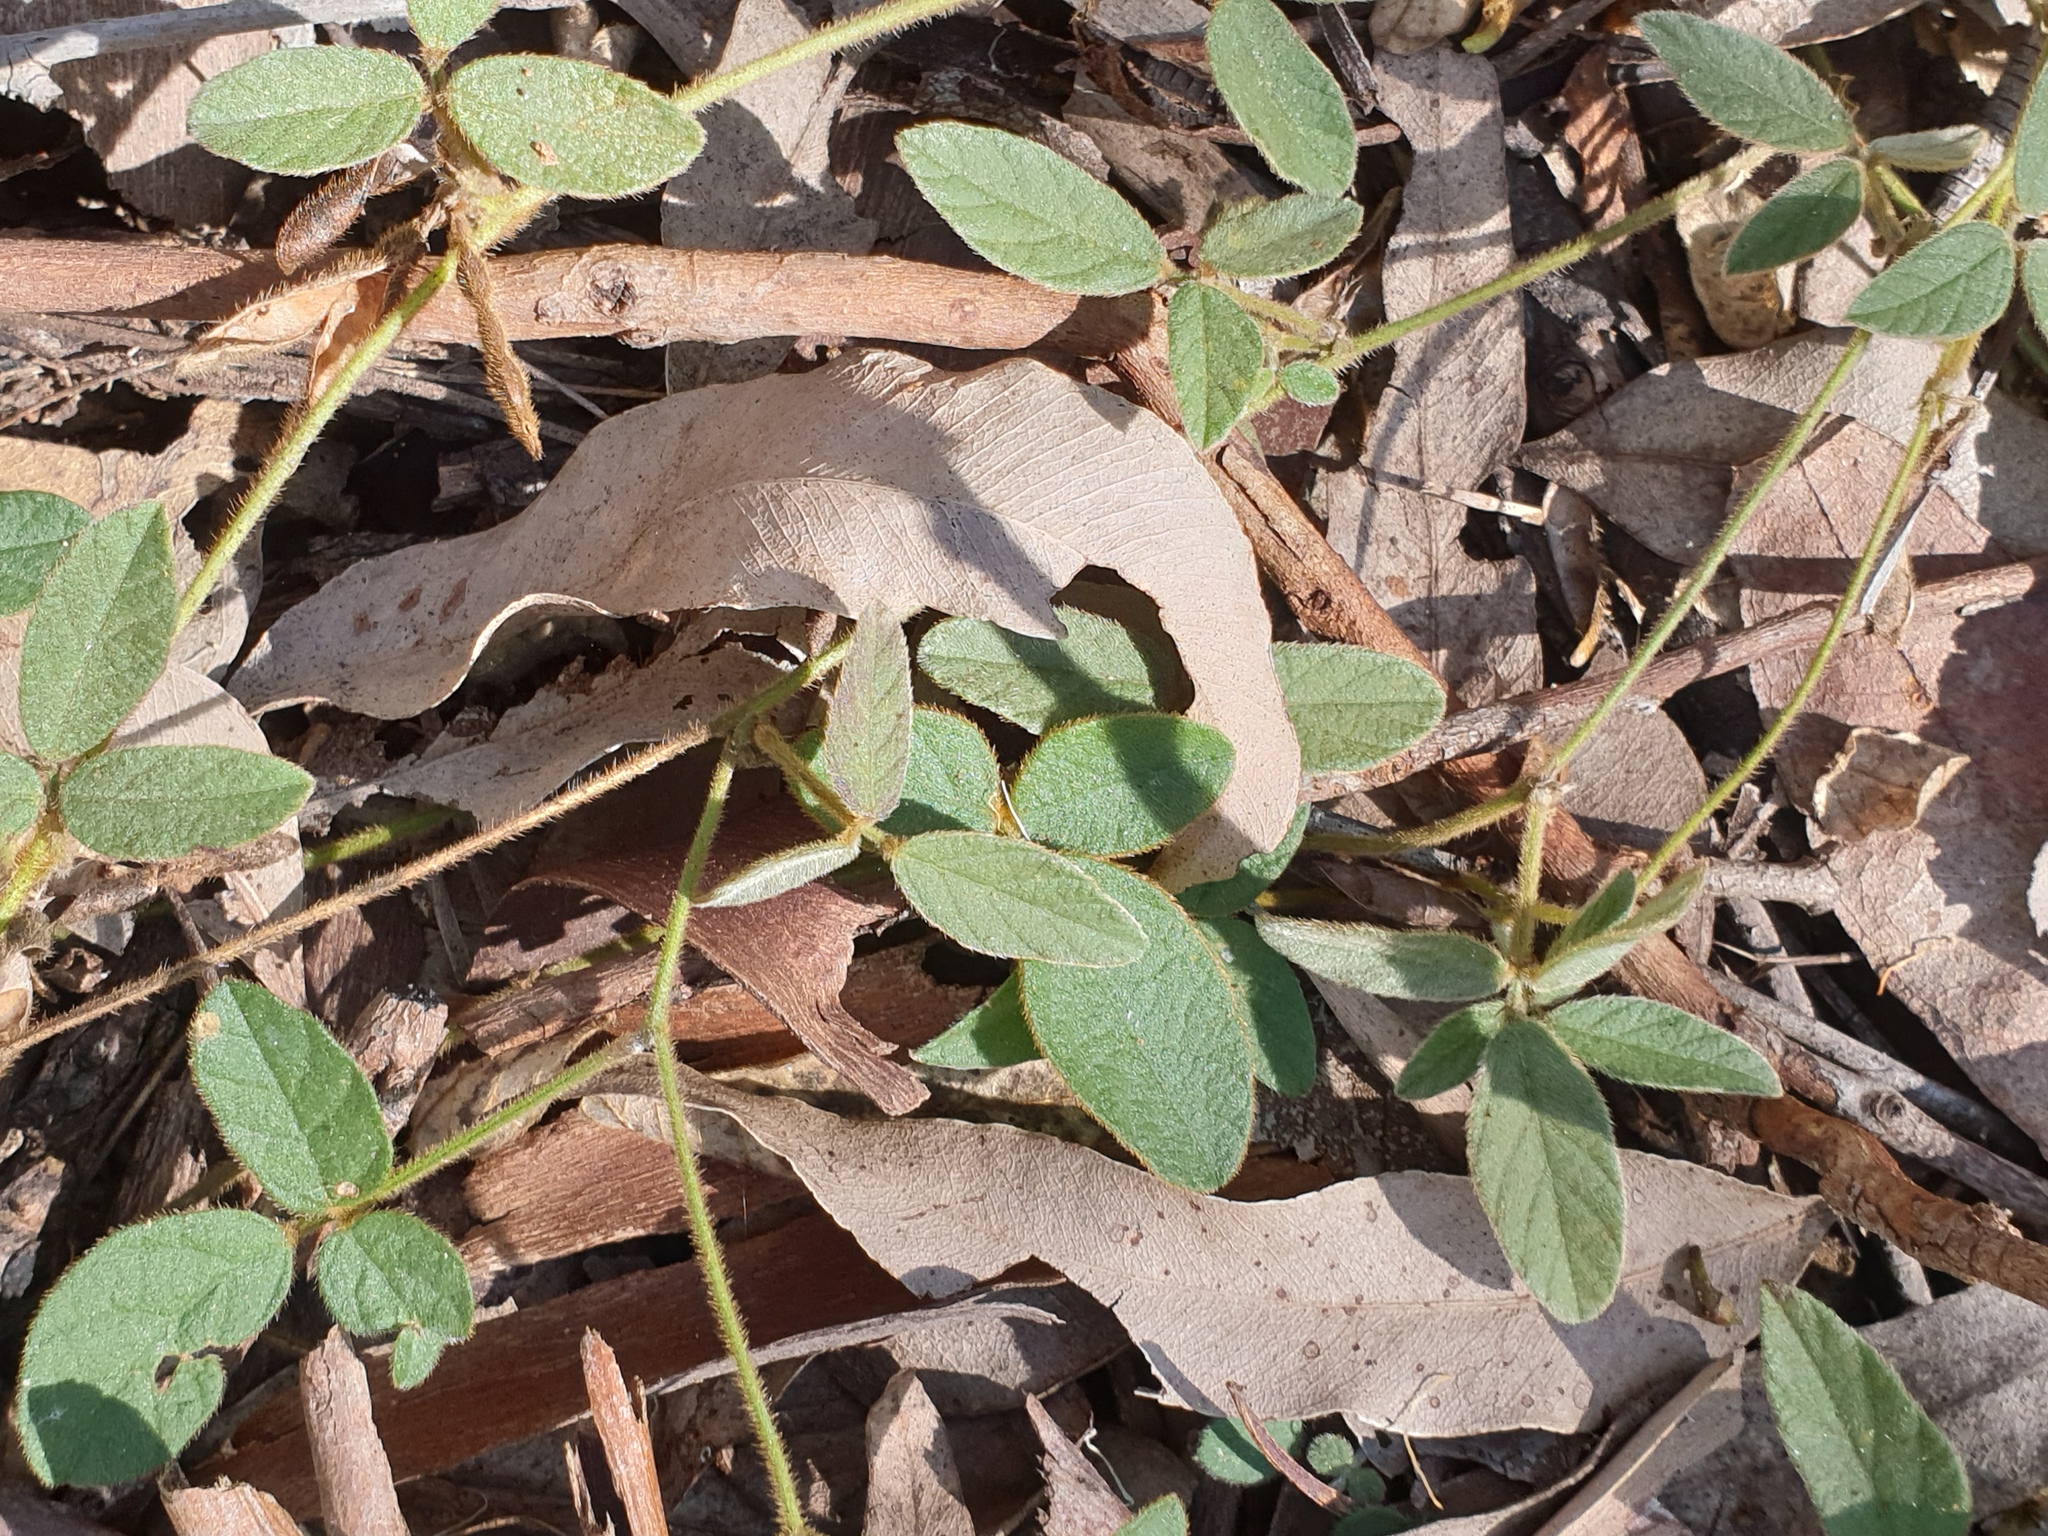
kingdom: Plantae
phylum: Tracheophyta
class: Magnoliopsida
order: Fabales
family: Fabaceae
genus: Maekawaea
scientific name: Maekawaea rhytidophylla
